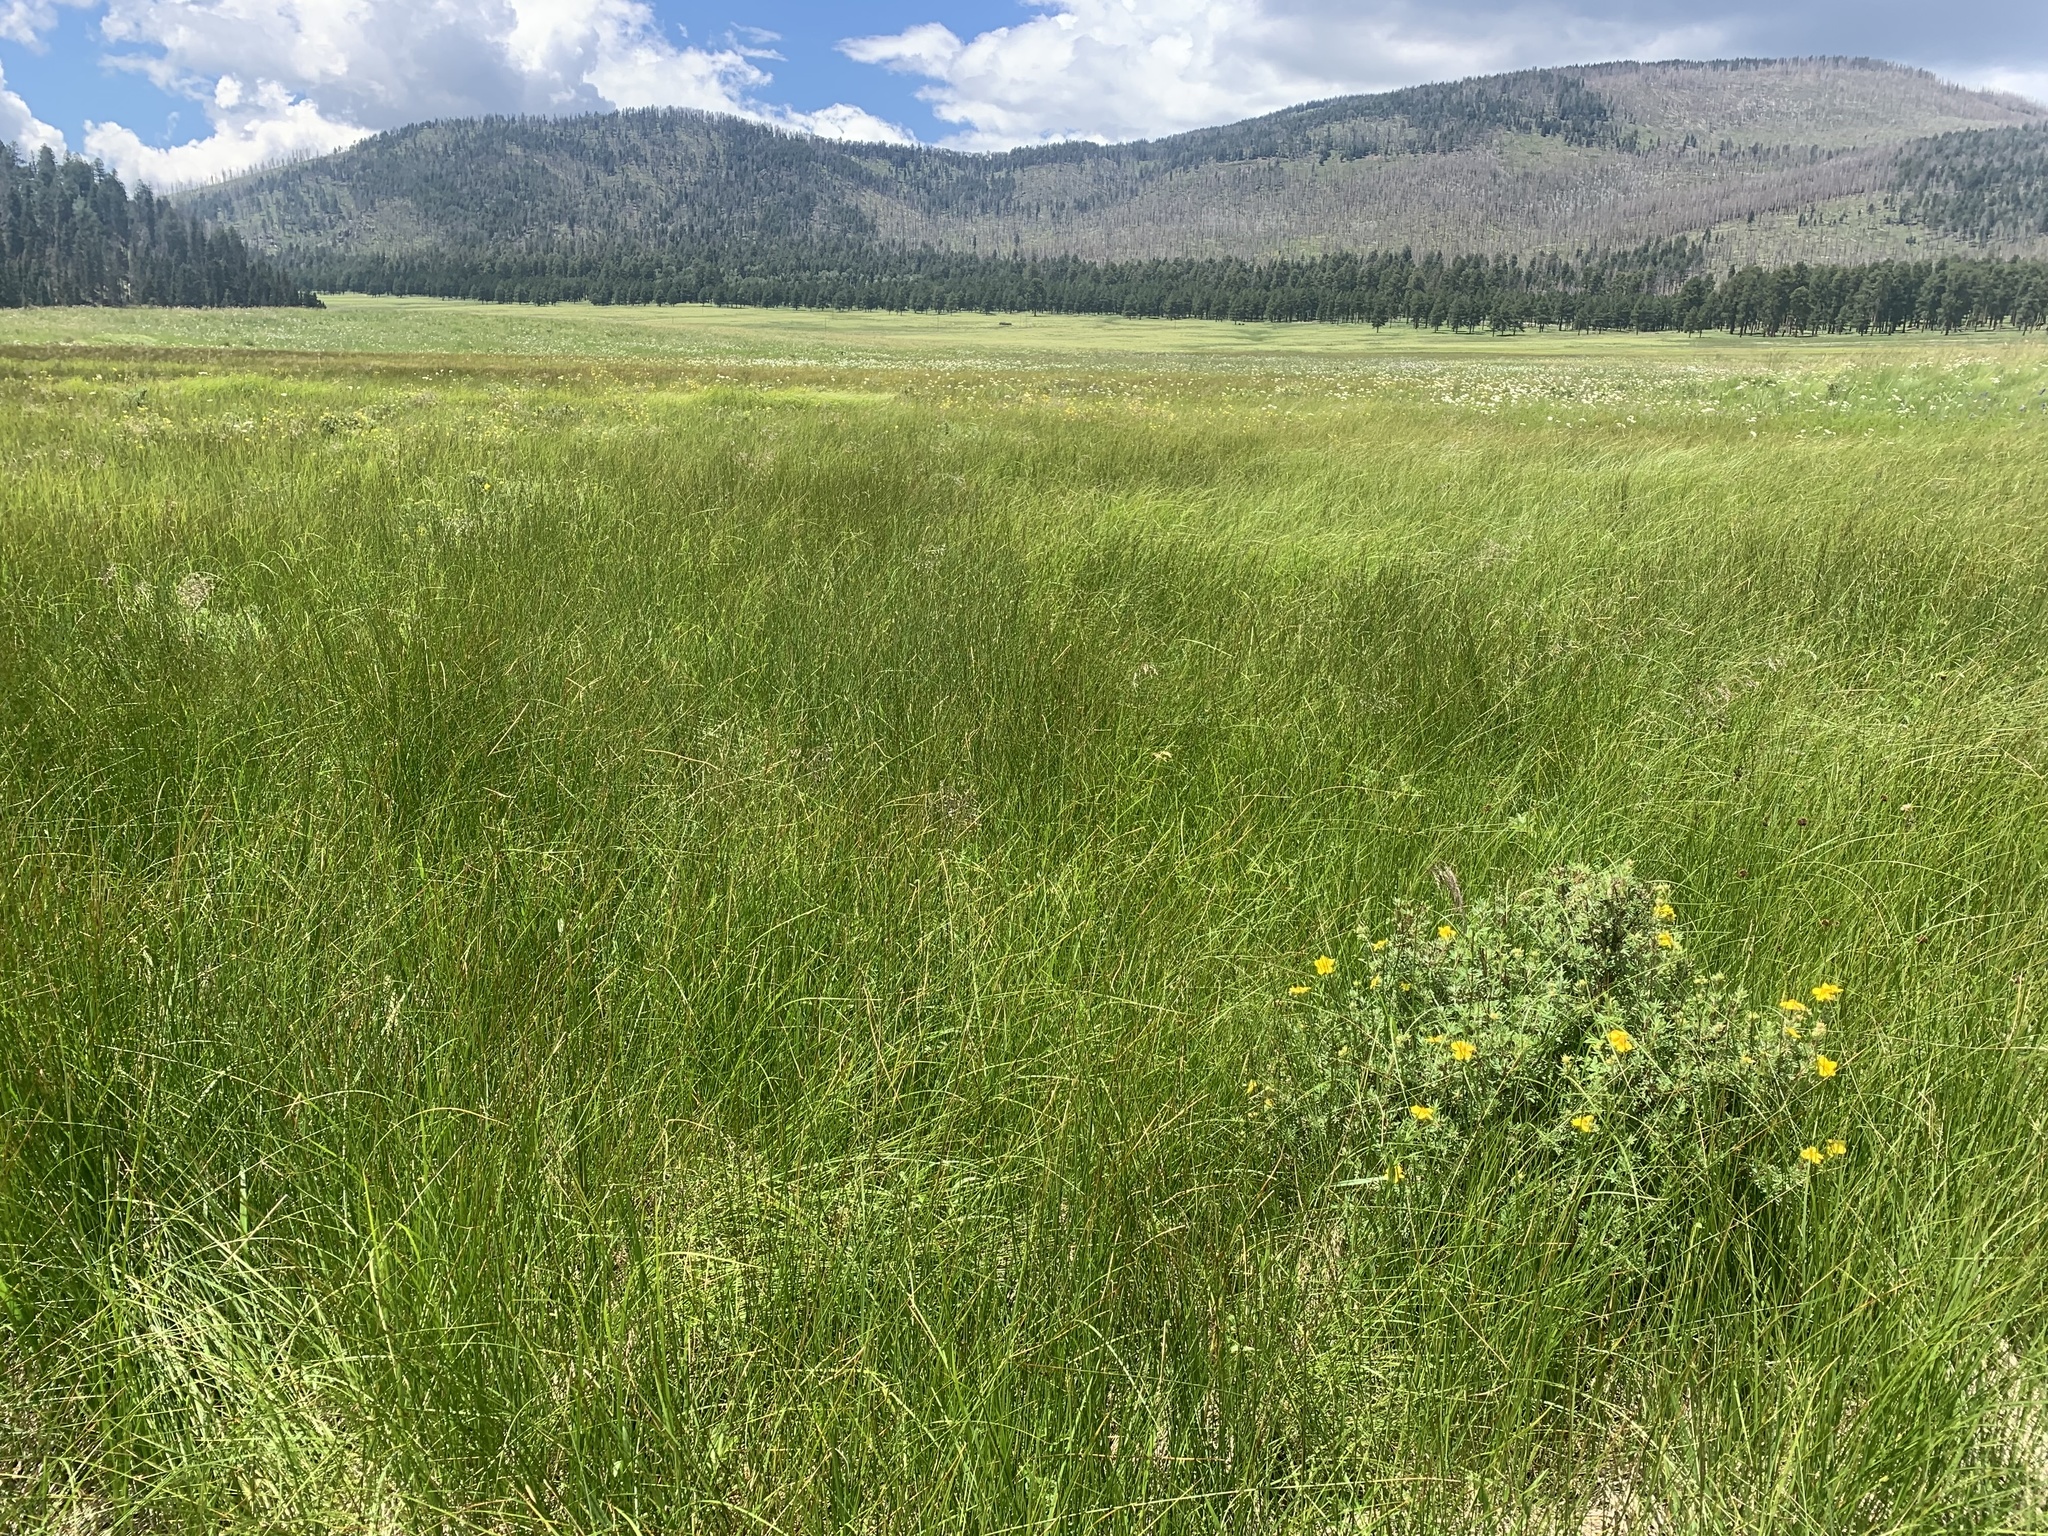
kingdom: Plantae
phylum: Tracheophyta
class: Magnoliopsida
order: Rosales
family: Rosaceae
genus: Dasiphora
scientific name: Dasiphora fruticosa
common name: Shrubby cinquefoil
